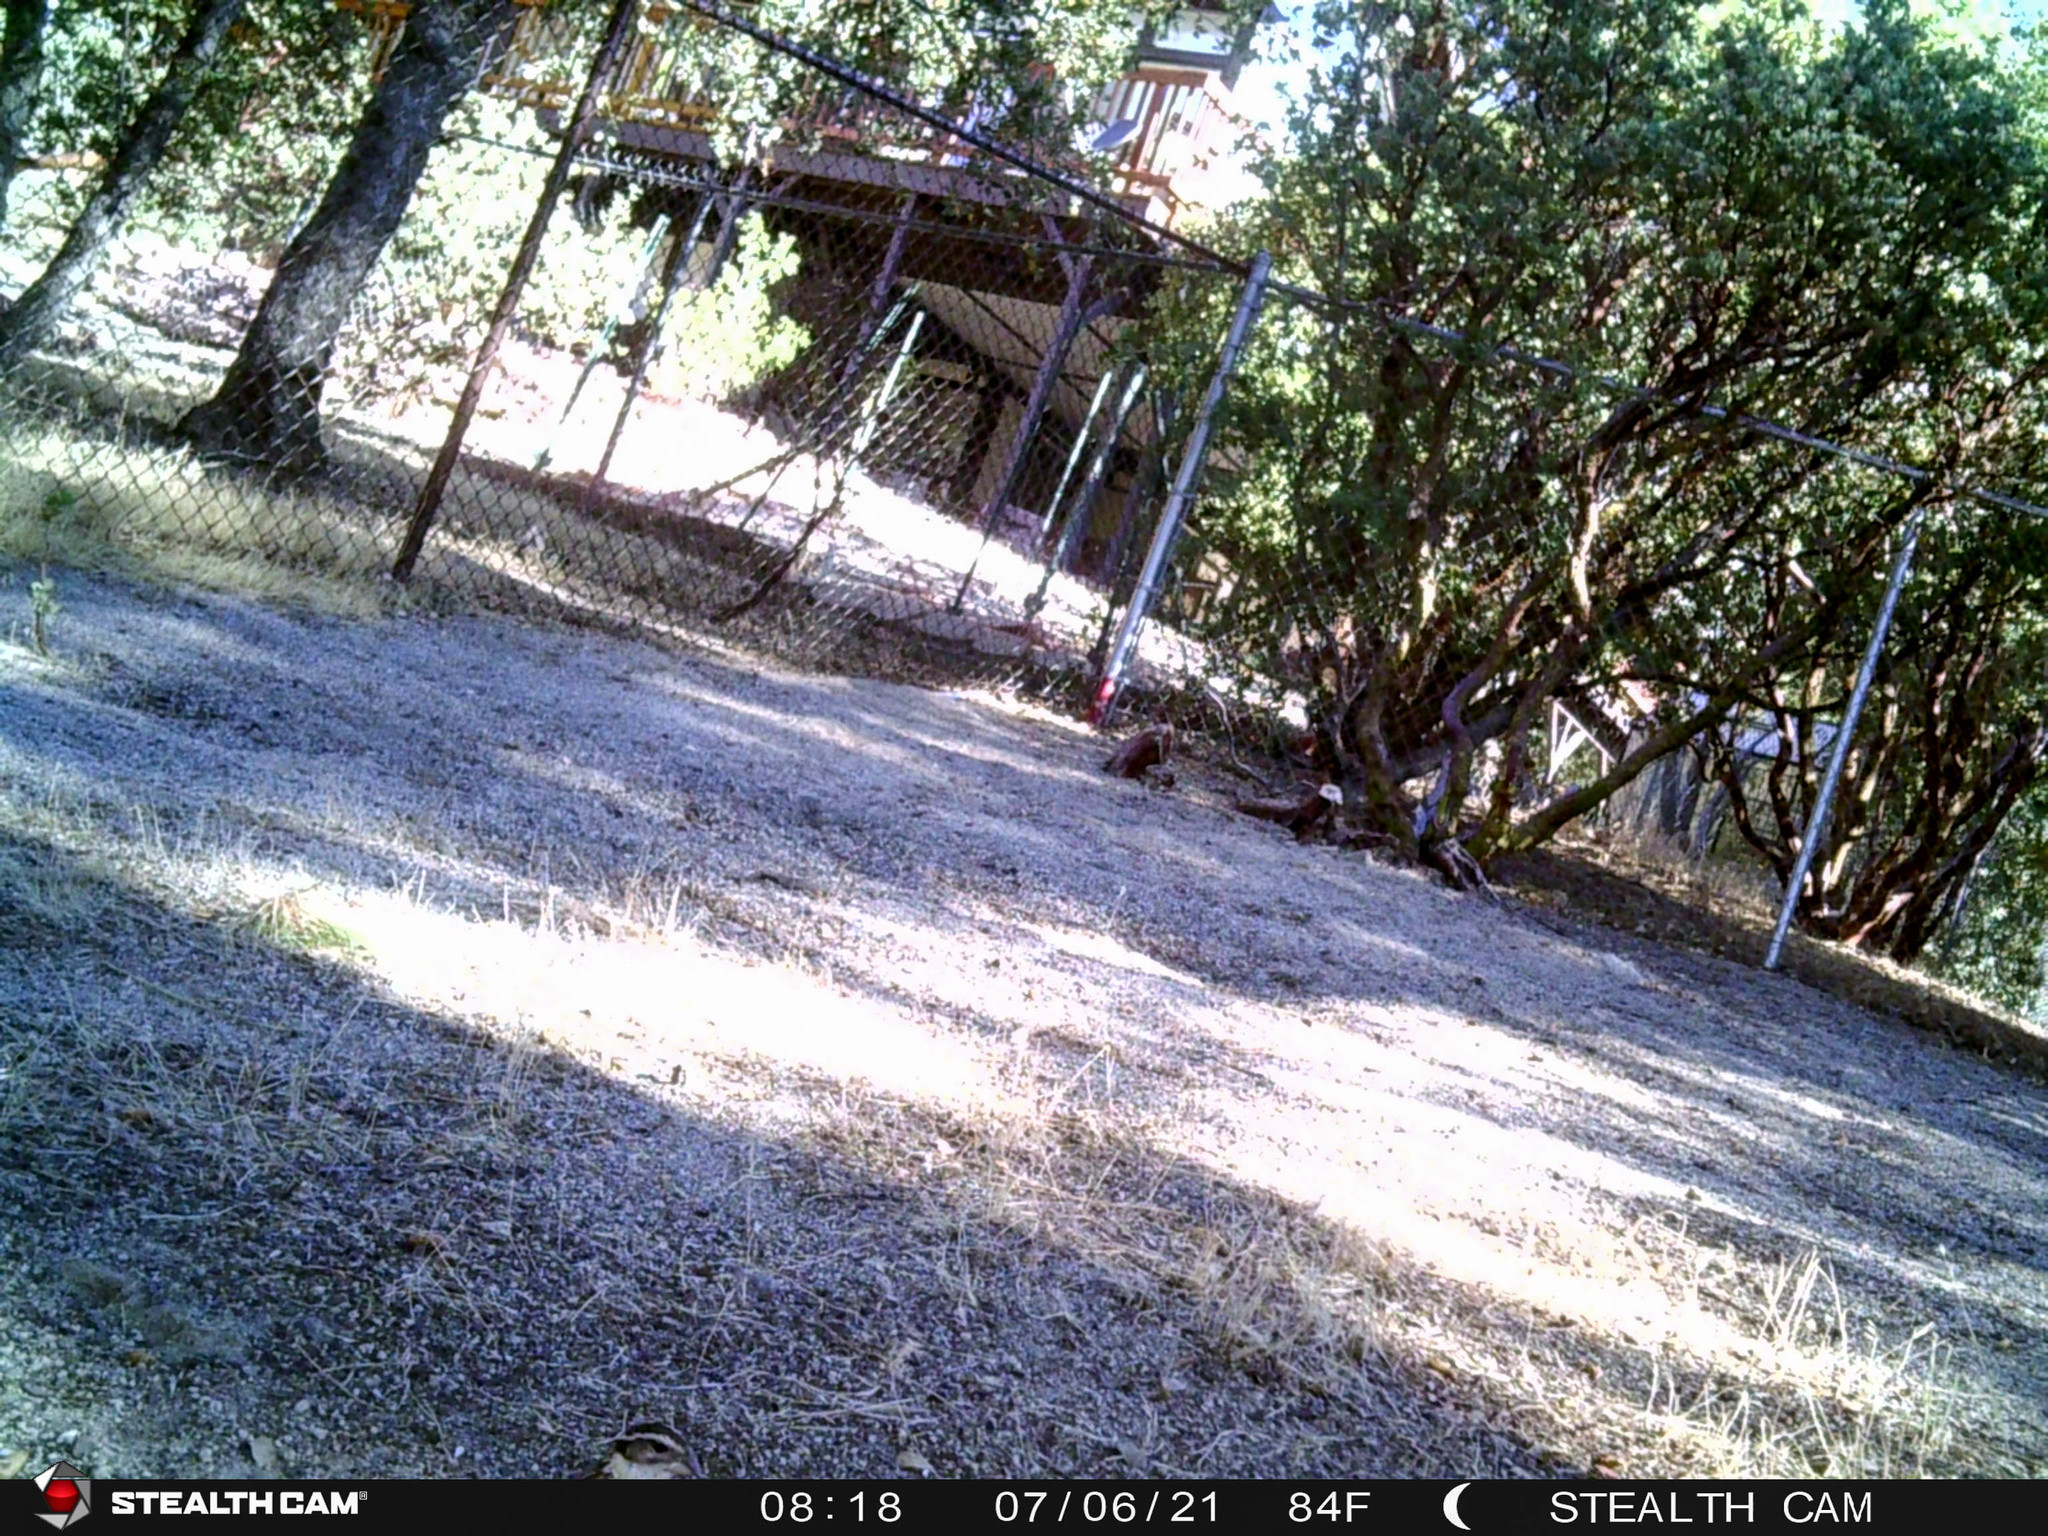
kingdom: Animalia
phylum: Chordata
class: Aves
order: Passeriformes
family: Cardinalidae
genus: Pheucticus
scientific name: Pheucticus melanocephalus
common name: Black-headed grosbeak
